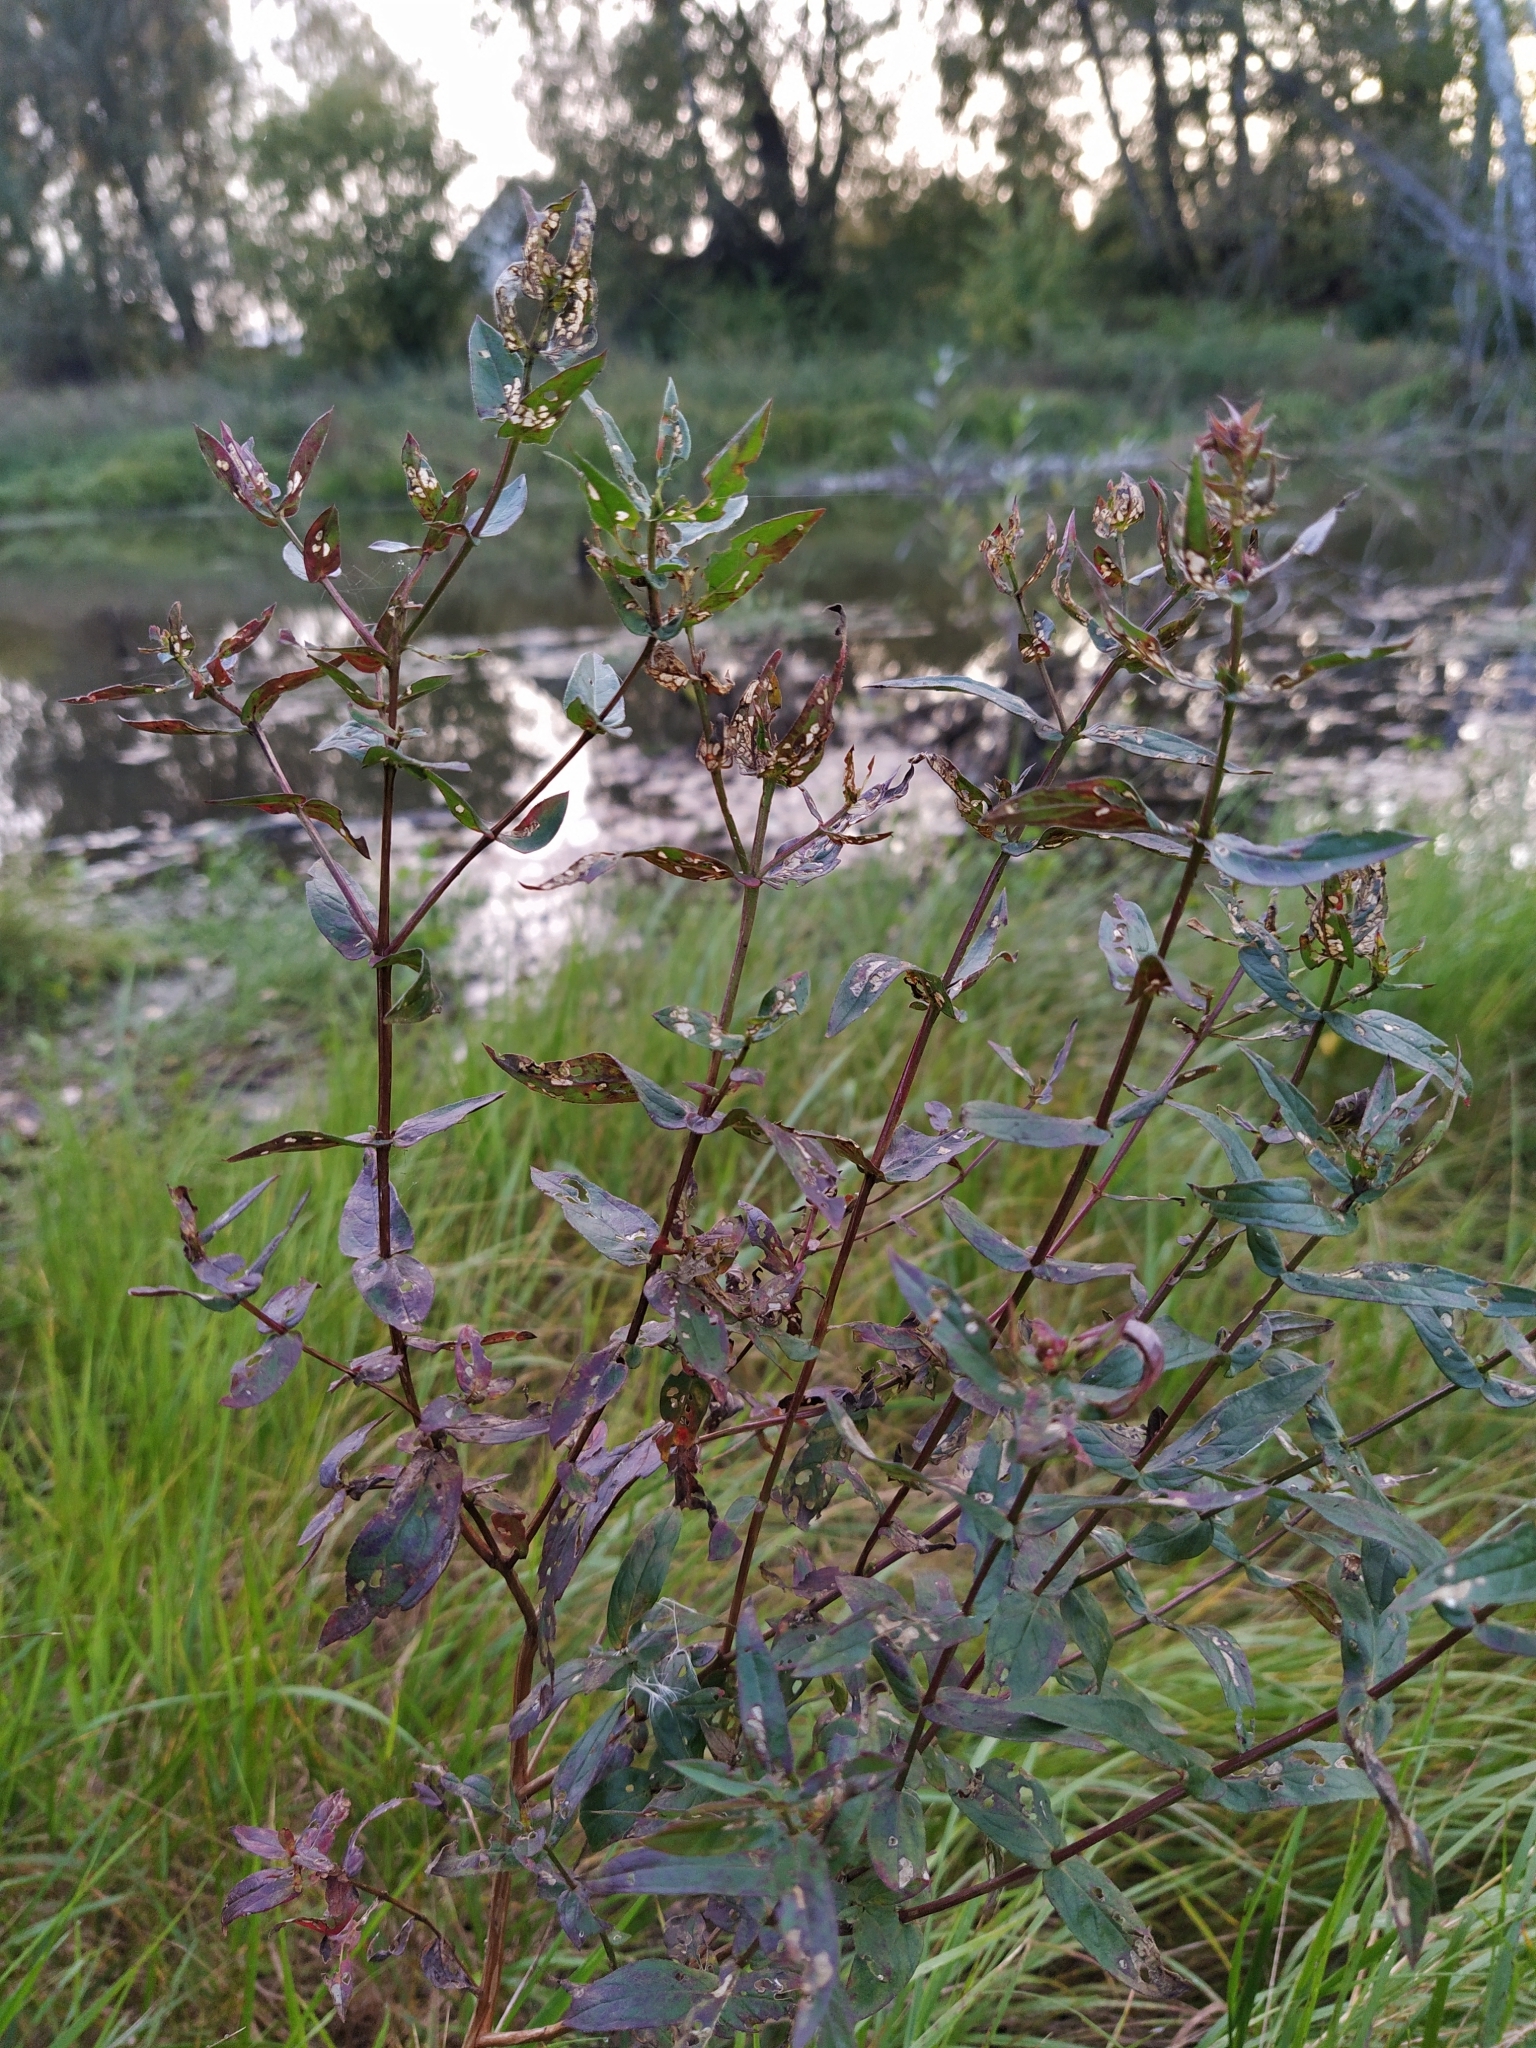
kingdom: Plantae
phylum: Tracheophyta
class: Magnoliopsida
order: Myrtales
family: Lythraceae
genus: Lythrum
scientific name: Lythrum salicaria
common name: Purple loosestrife
